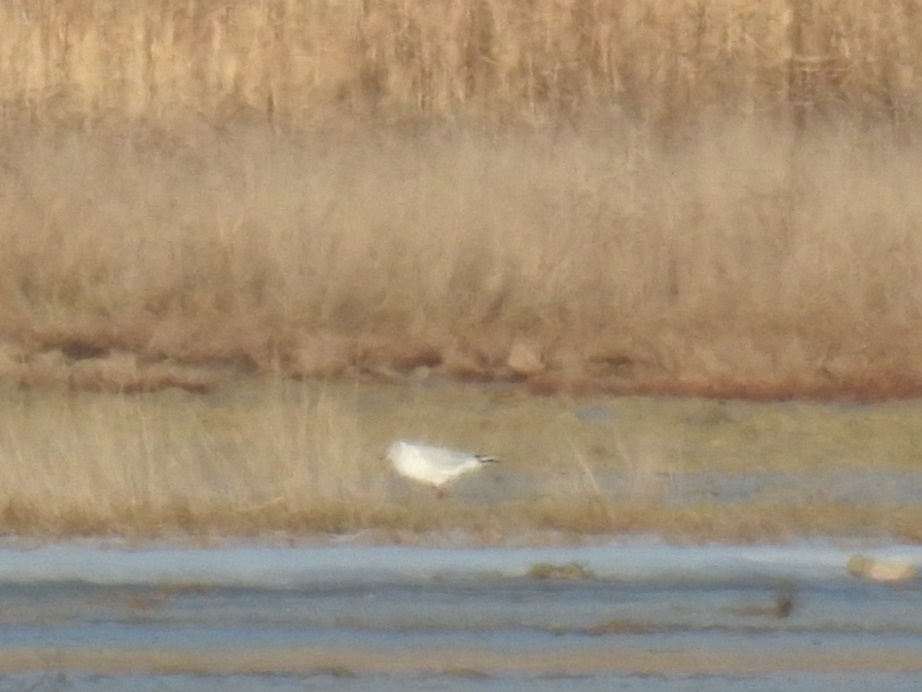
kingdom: Animalia
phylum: Chordata
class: Aves
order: Charadriiformes
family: Laridae
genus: Chroicocephalus
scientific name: Chroicocephalus ridibundus
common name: Black-headed gull
